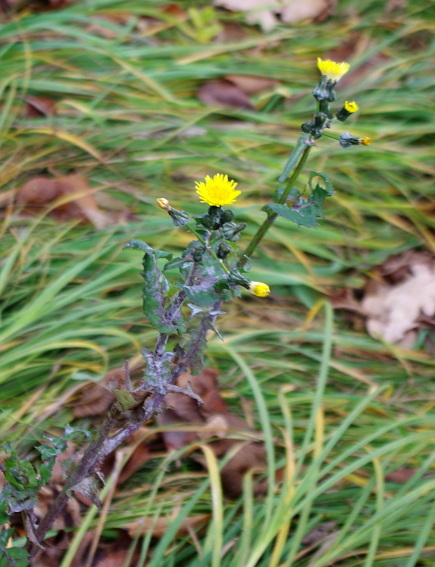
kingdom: Plantae
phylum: Tracheophyta
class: Magnoliopsida
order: Asterales
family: Asteraceae
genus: Sonchus
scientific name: Sonchus oleraceus
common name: Common sowthistle
